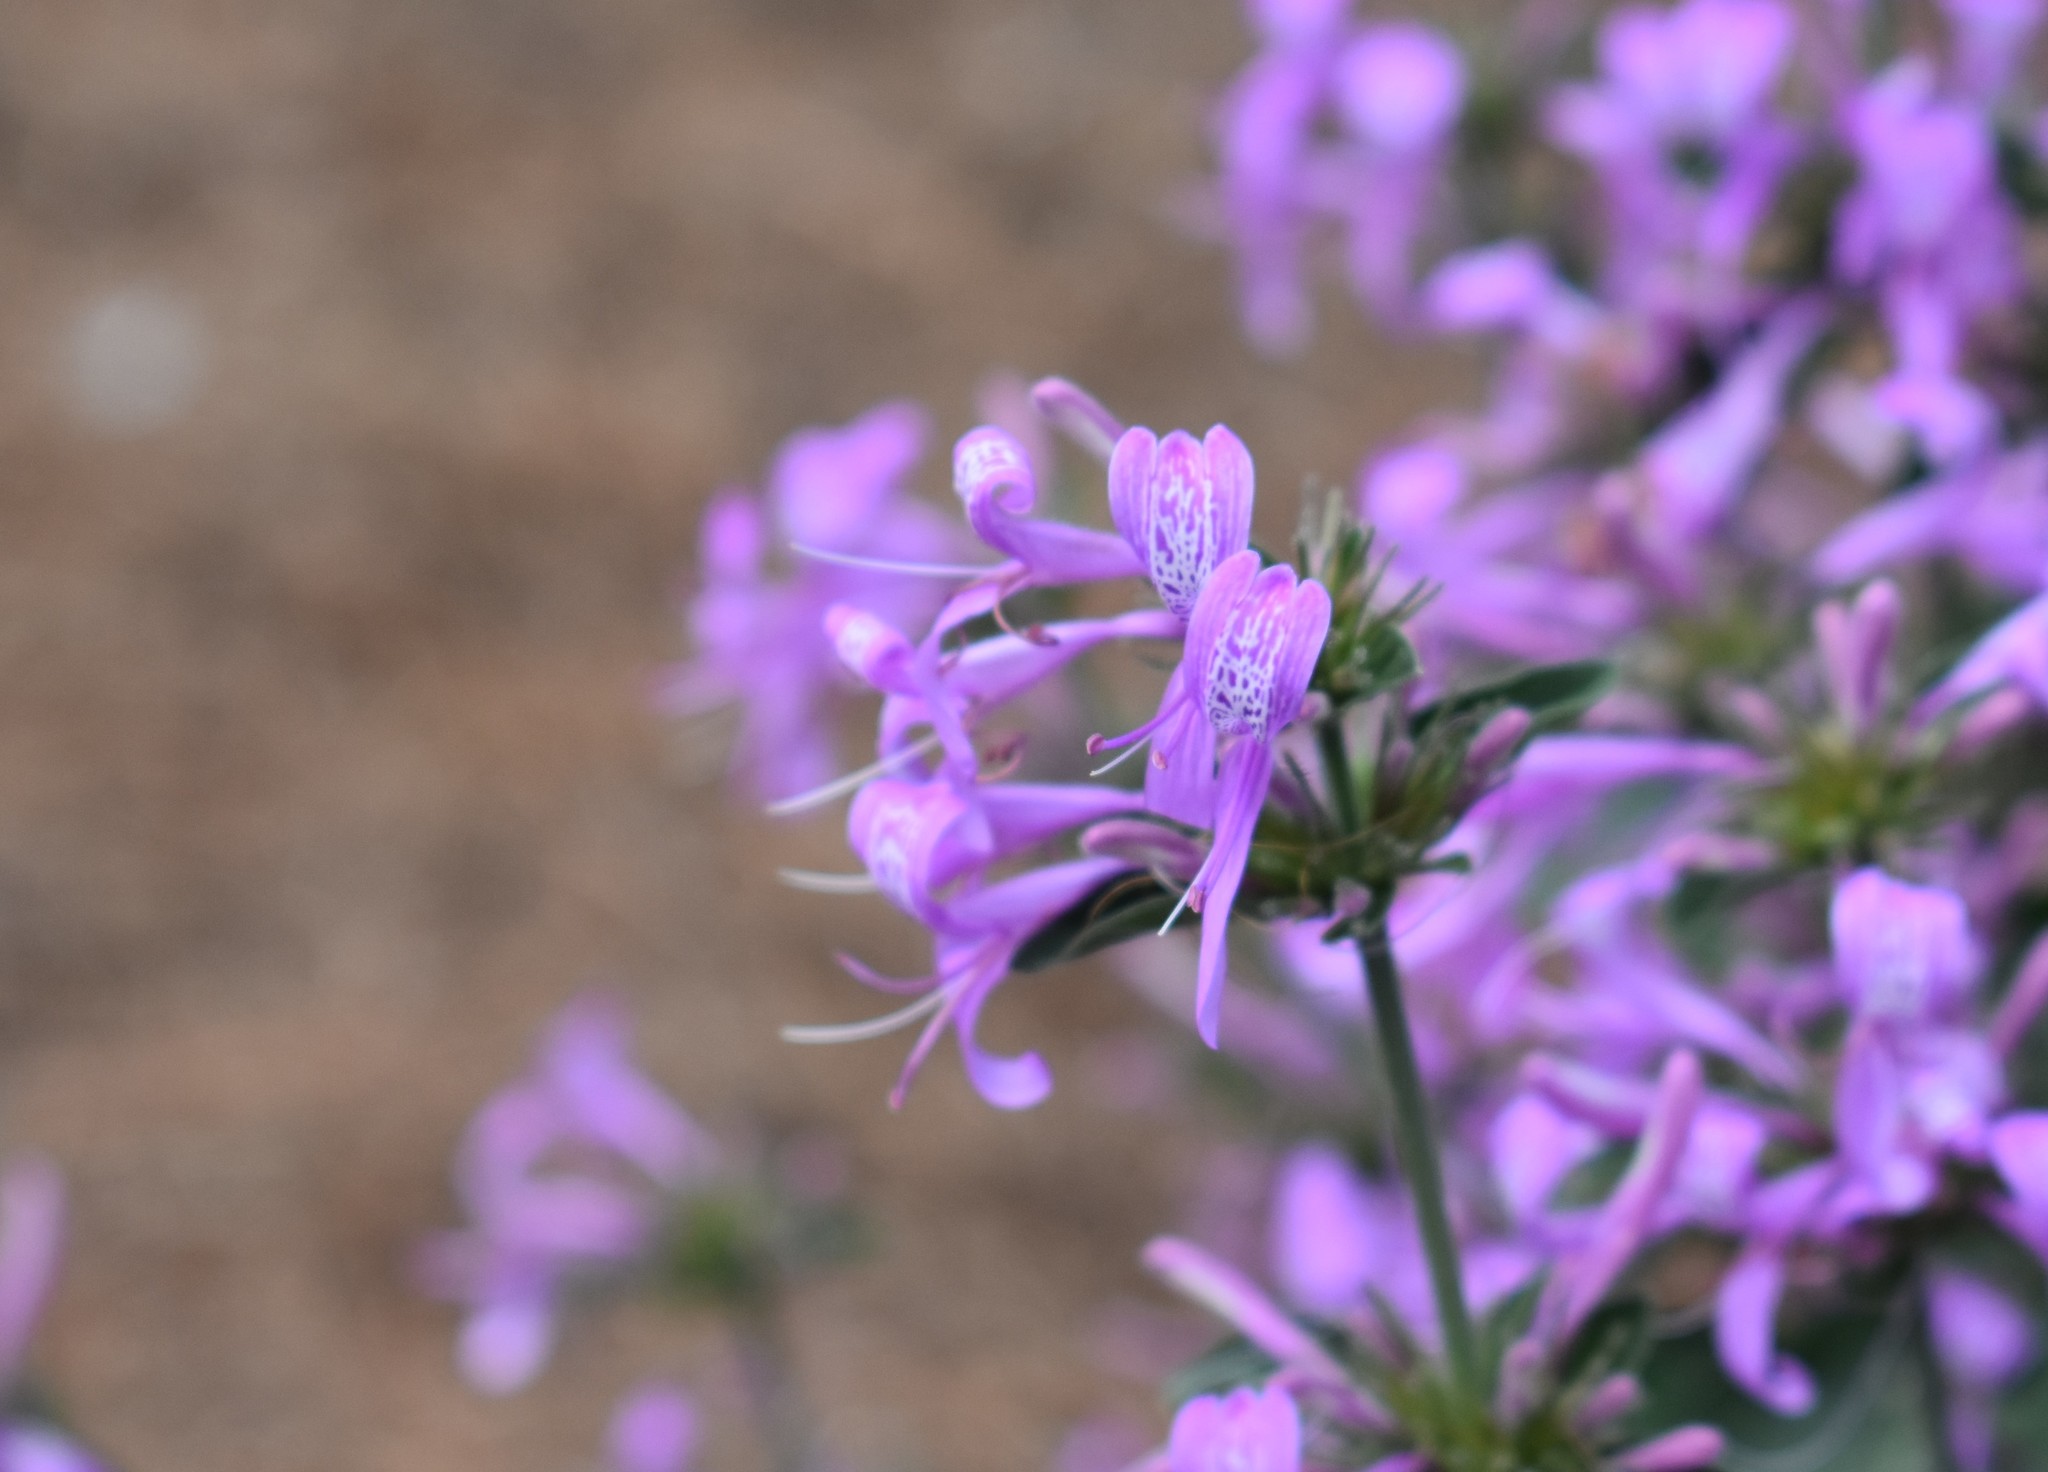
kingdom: Plantae
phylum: Tracheophyta
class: Magnoliopsida
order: Lamiales
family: Acanthaceae
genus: Hypoestes
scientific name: Hypoestes aristata
